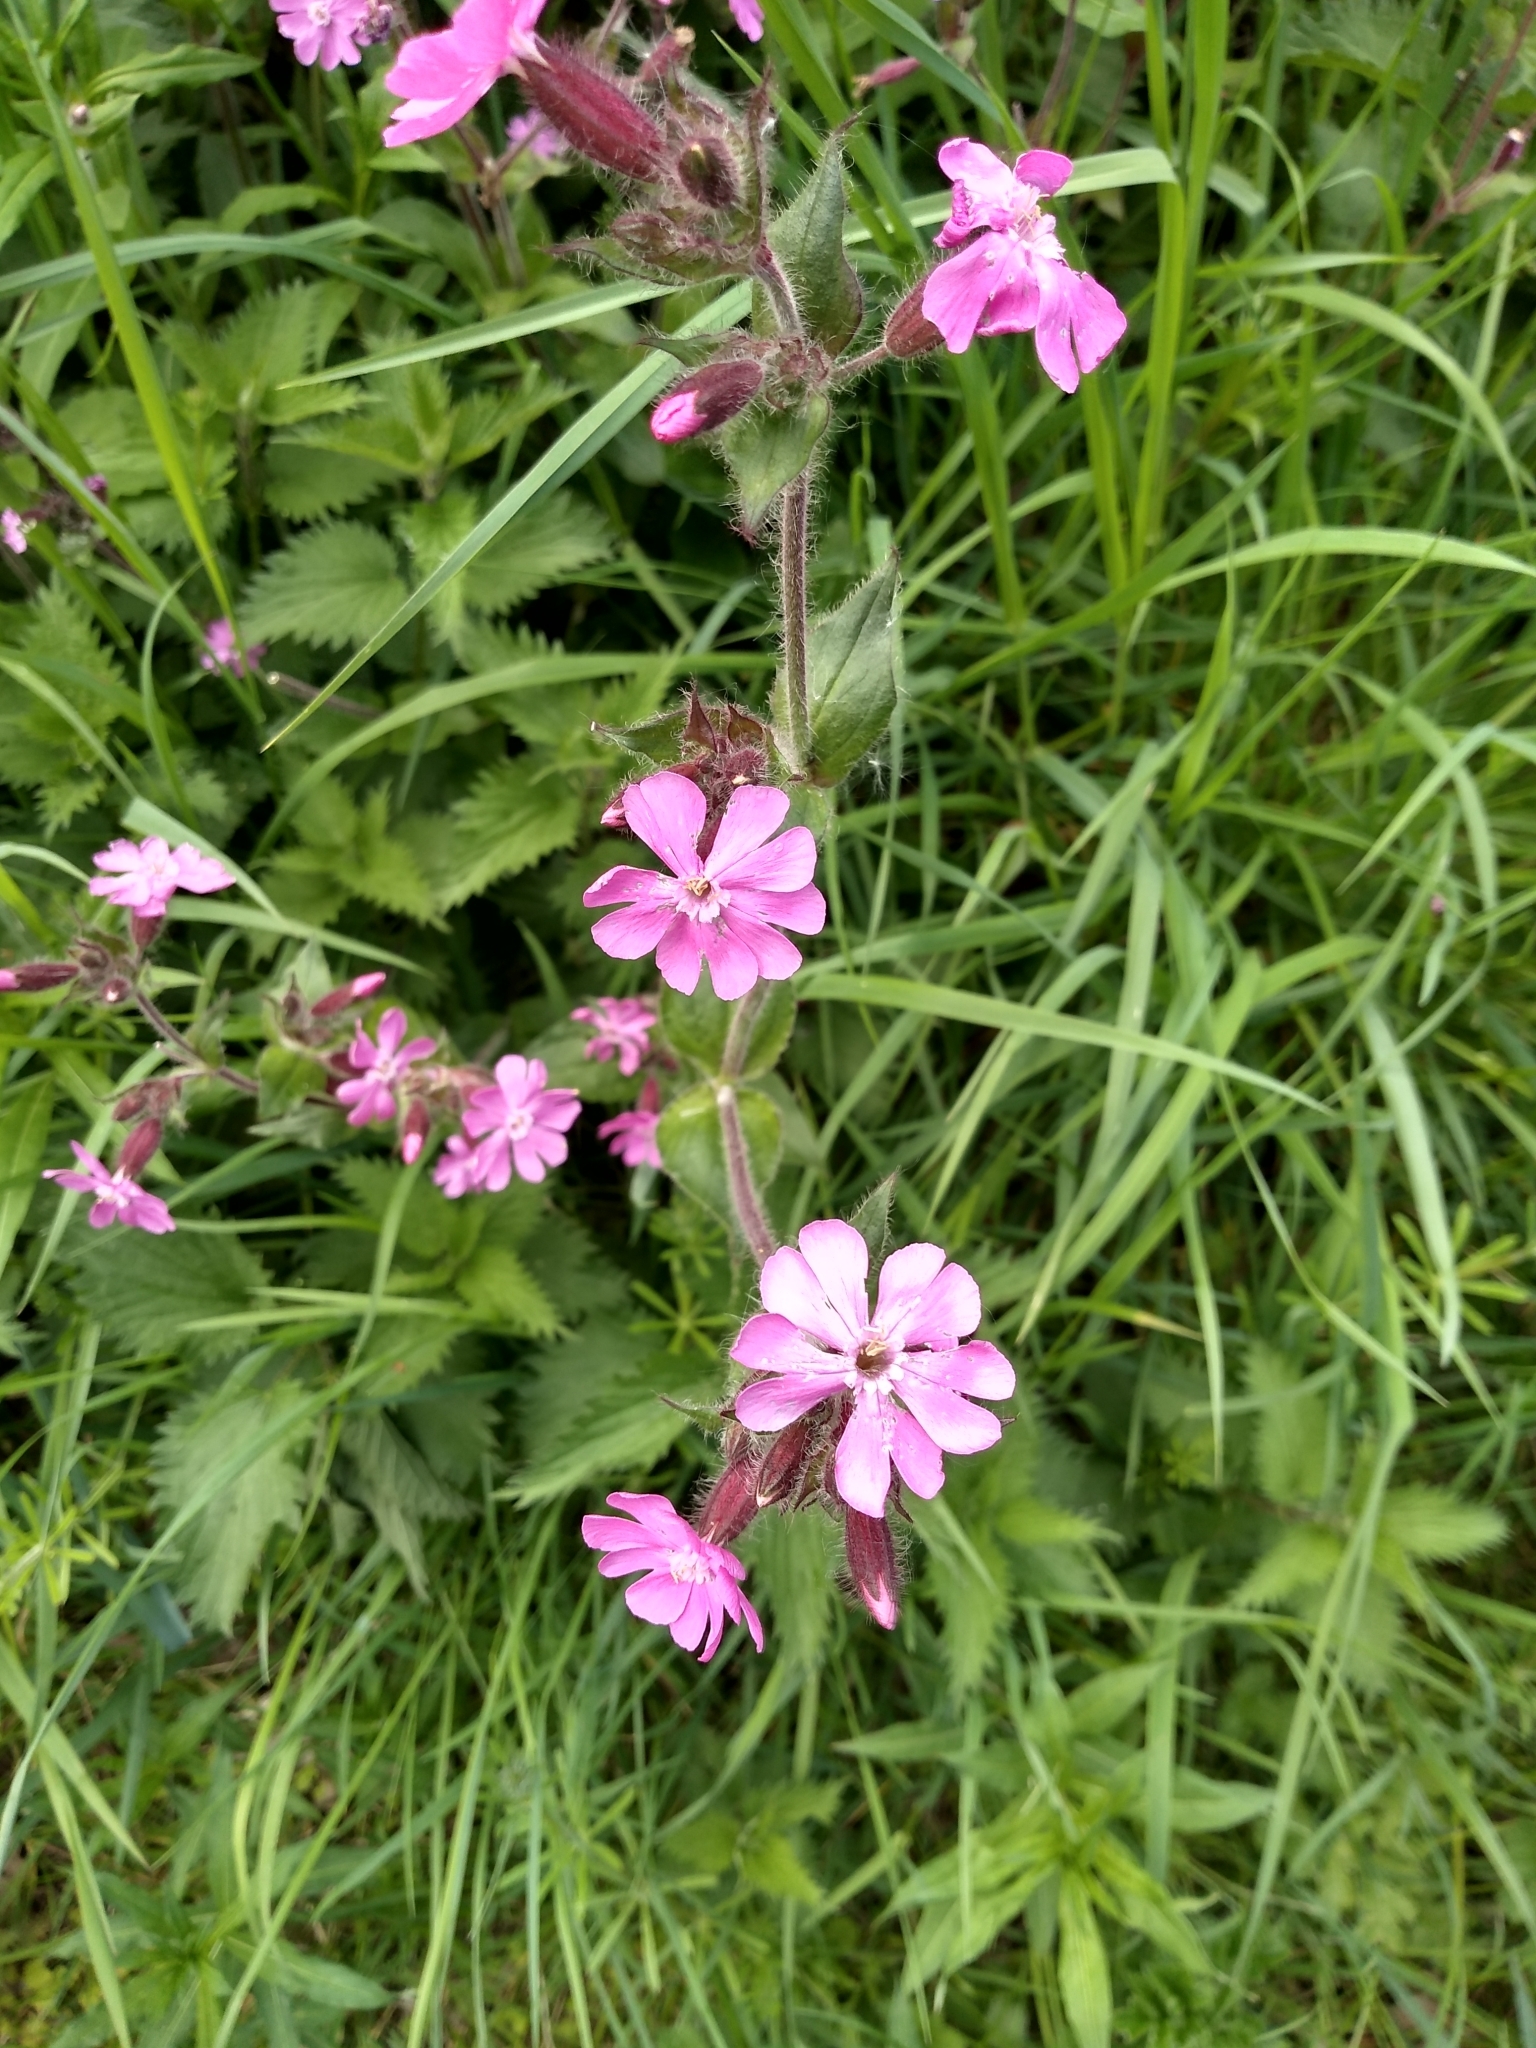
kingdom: Plantae
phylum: Tracheophyta
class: Magnoliopsida
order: Caryophyllales
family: Caryophyllaceae
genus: Silene
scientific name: Silene dioica
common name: Red campion
